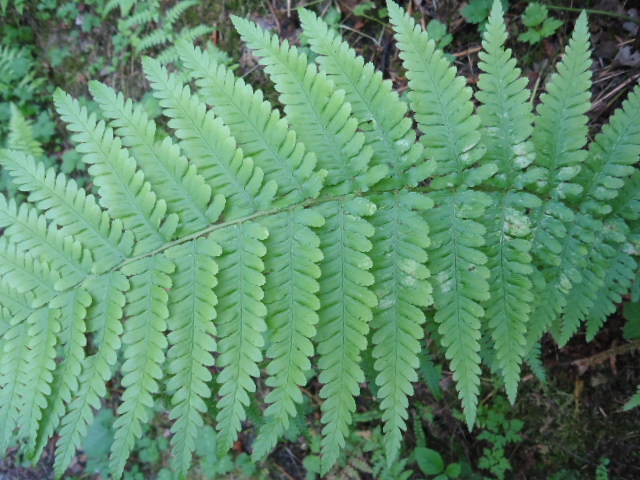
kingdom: Plantae
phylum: Tracheophyta
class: Polypodiopsida
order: Polypodiales
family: Dryopteridaceae
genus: Dryopteris
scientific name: Dryopteris filix-mas
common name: Male fern
